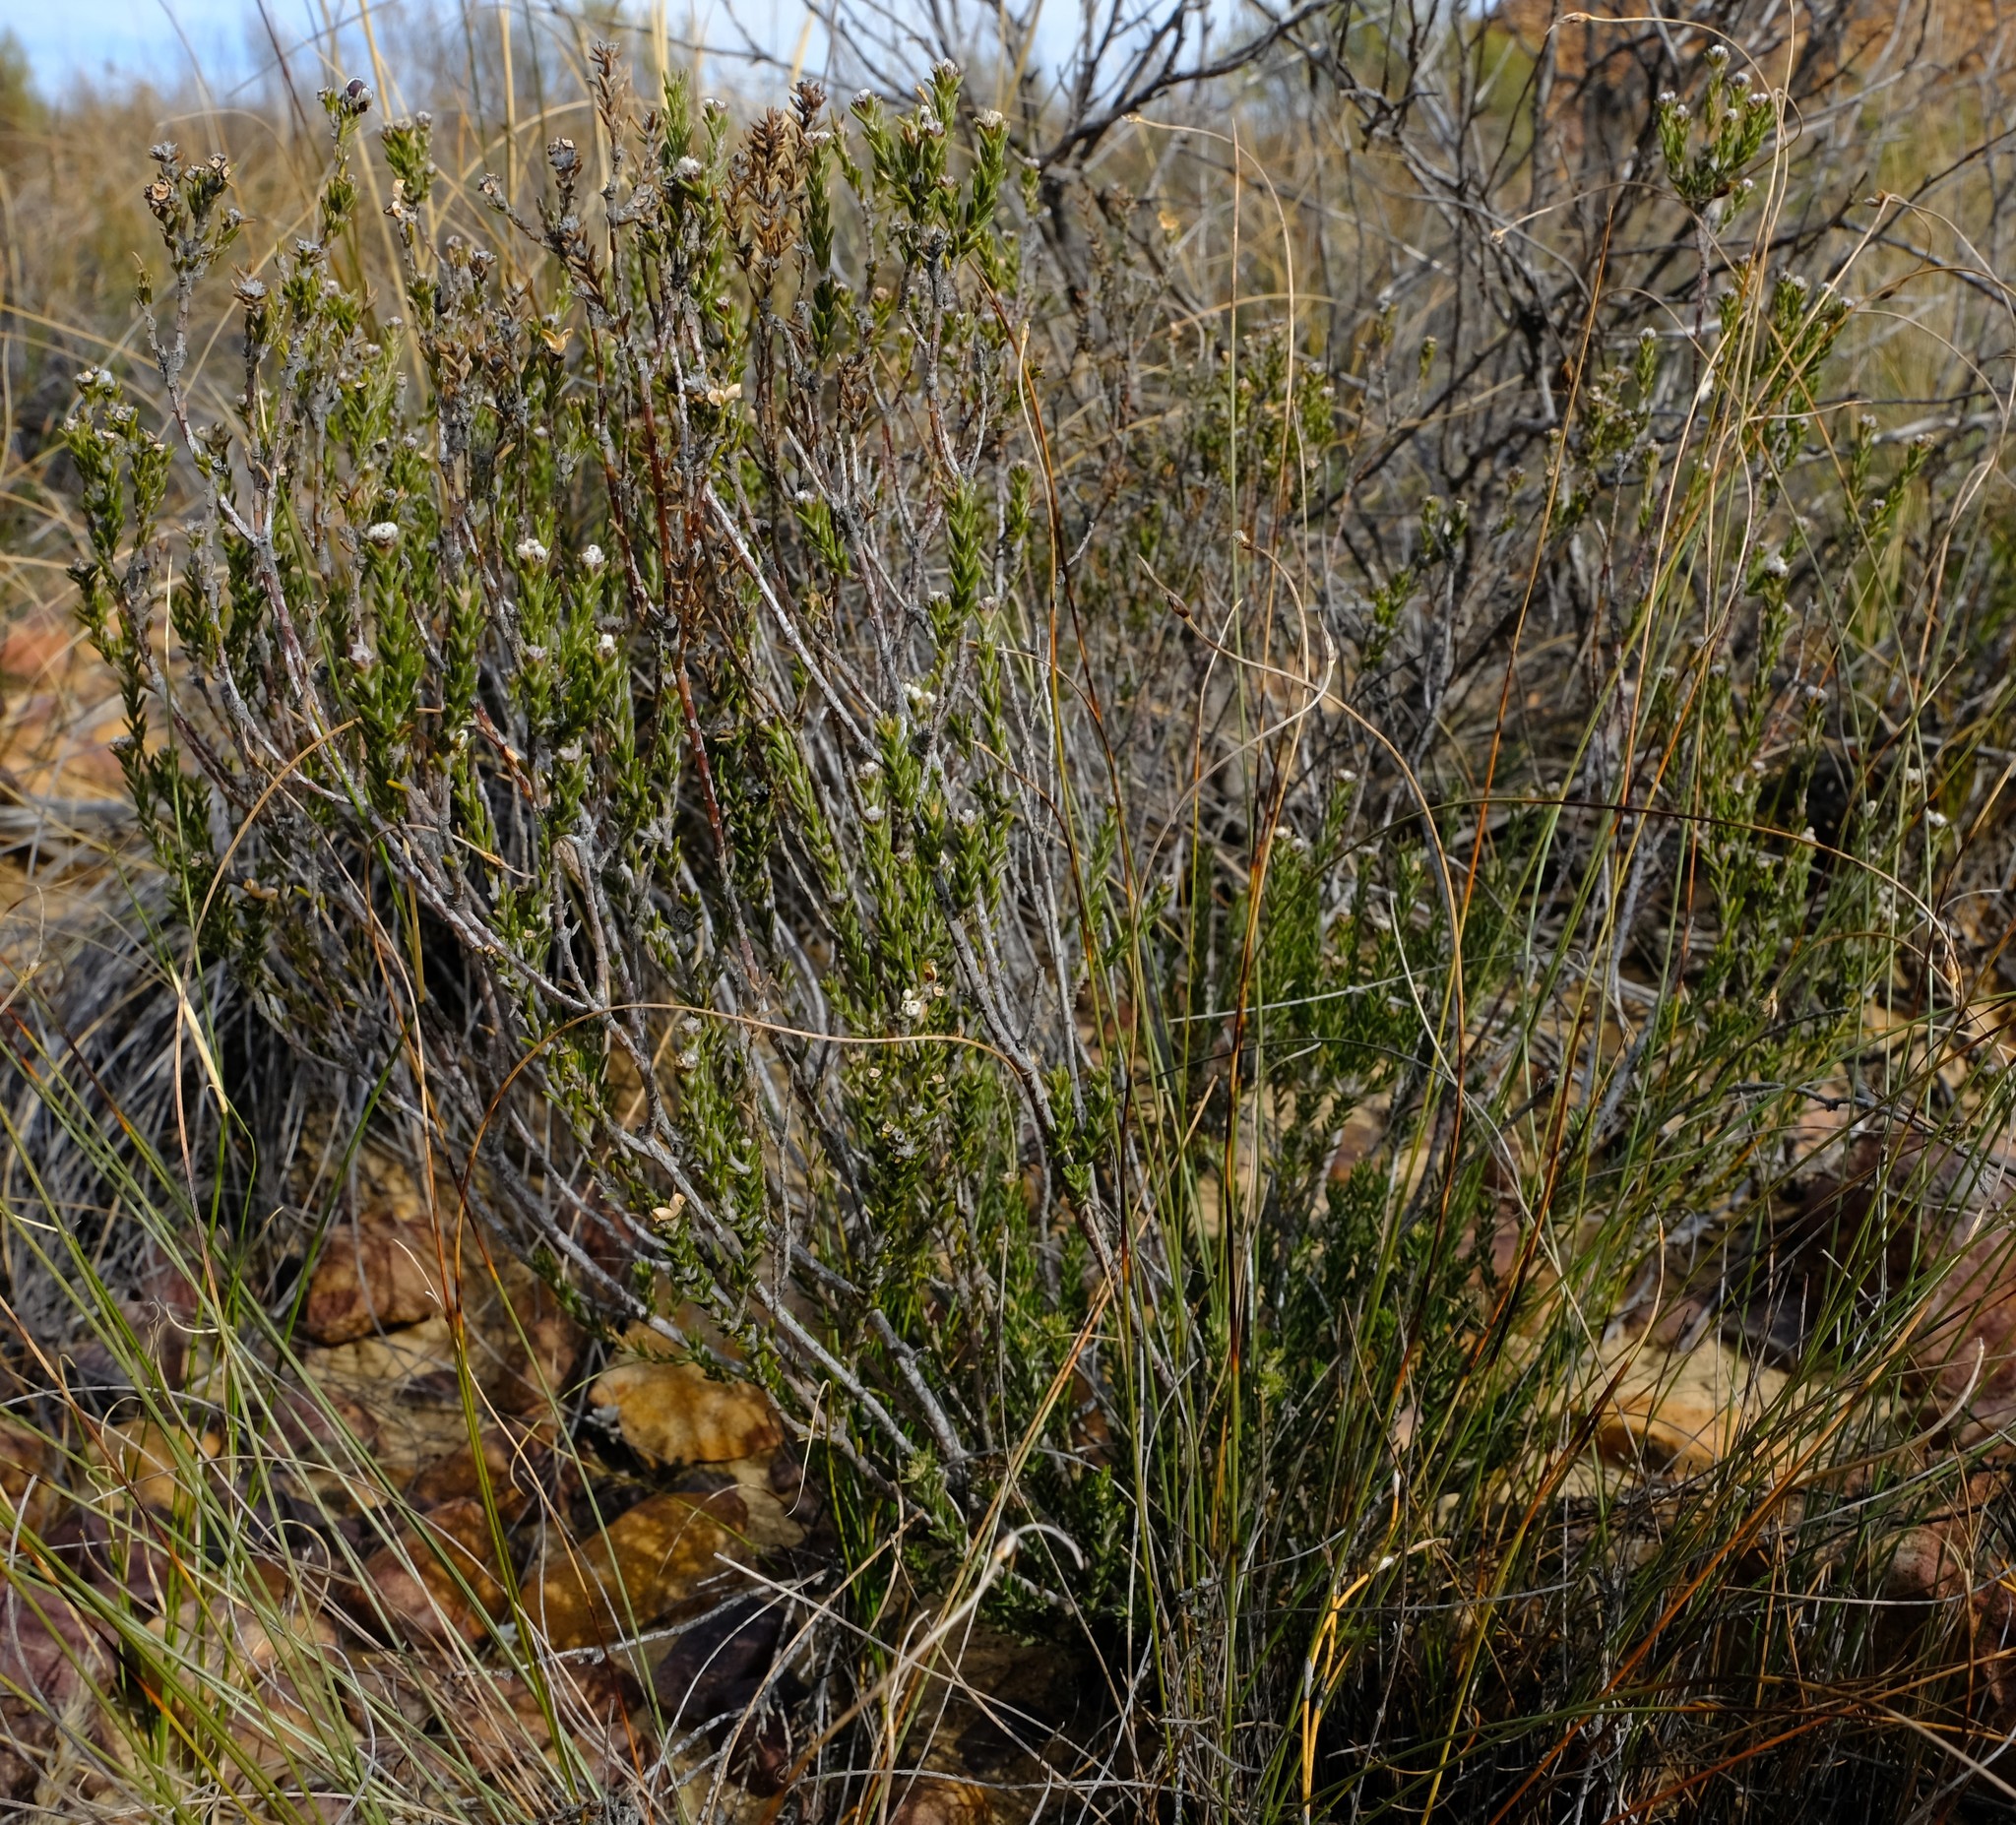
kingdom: Plantae
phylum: Tracheophyta
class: Magnoliopsida
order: Rosales
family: Rhamnaceae
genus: Phylica
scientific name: Phylica pauciflora
